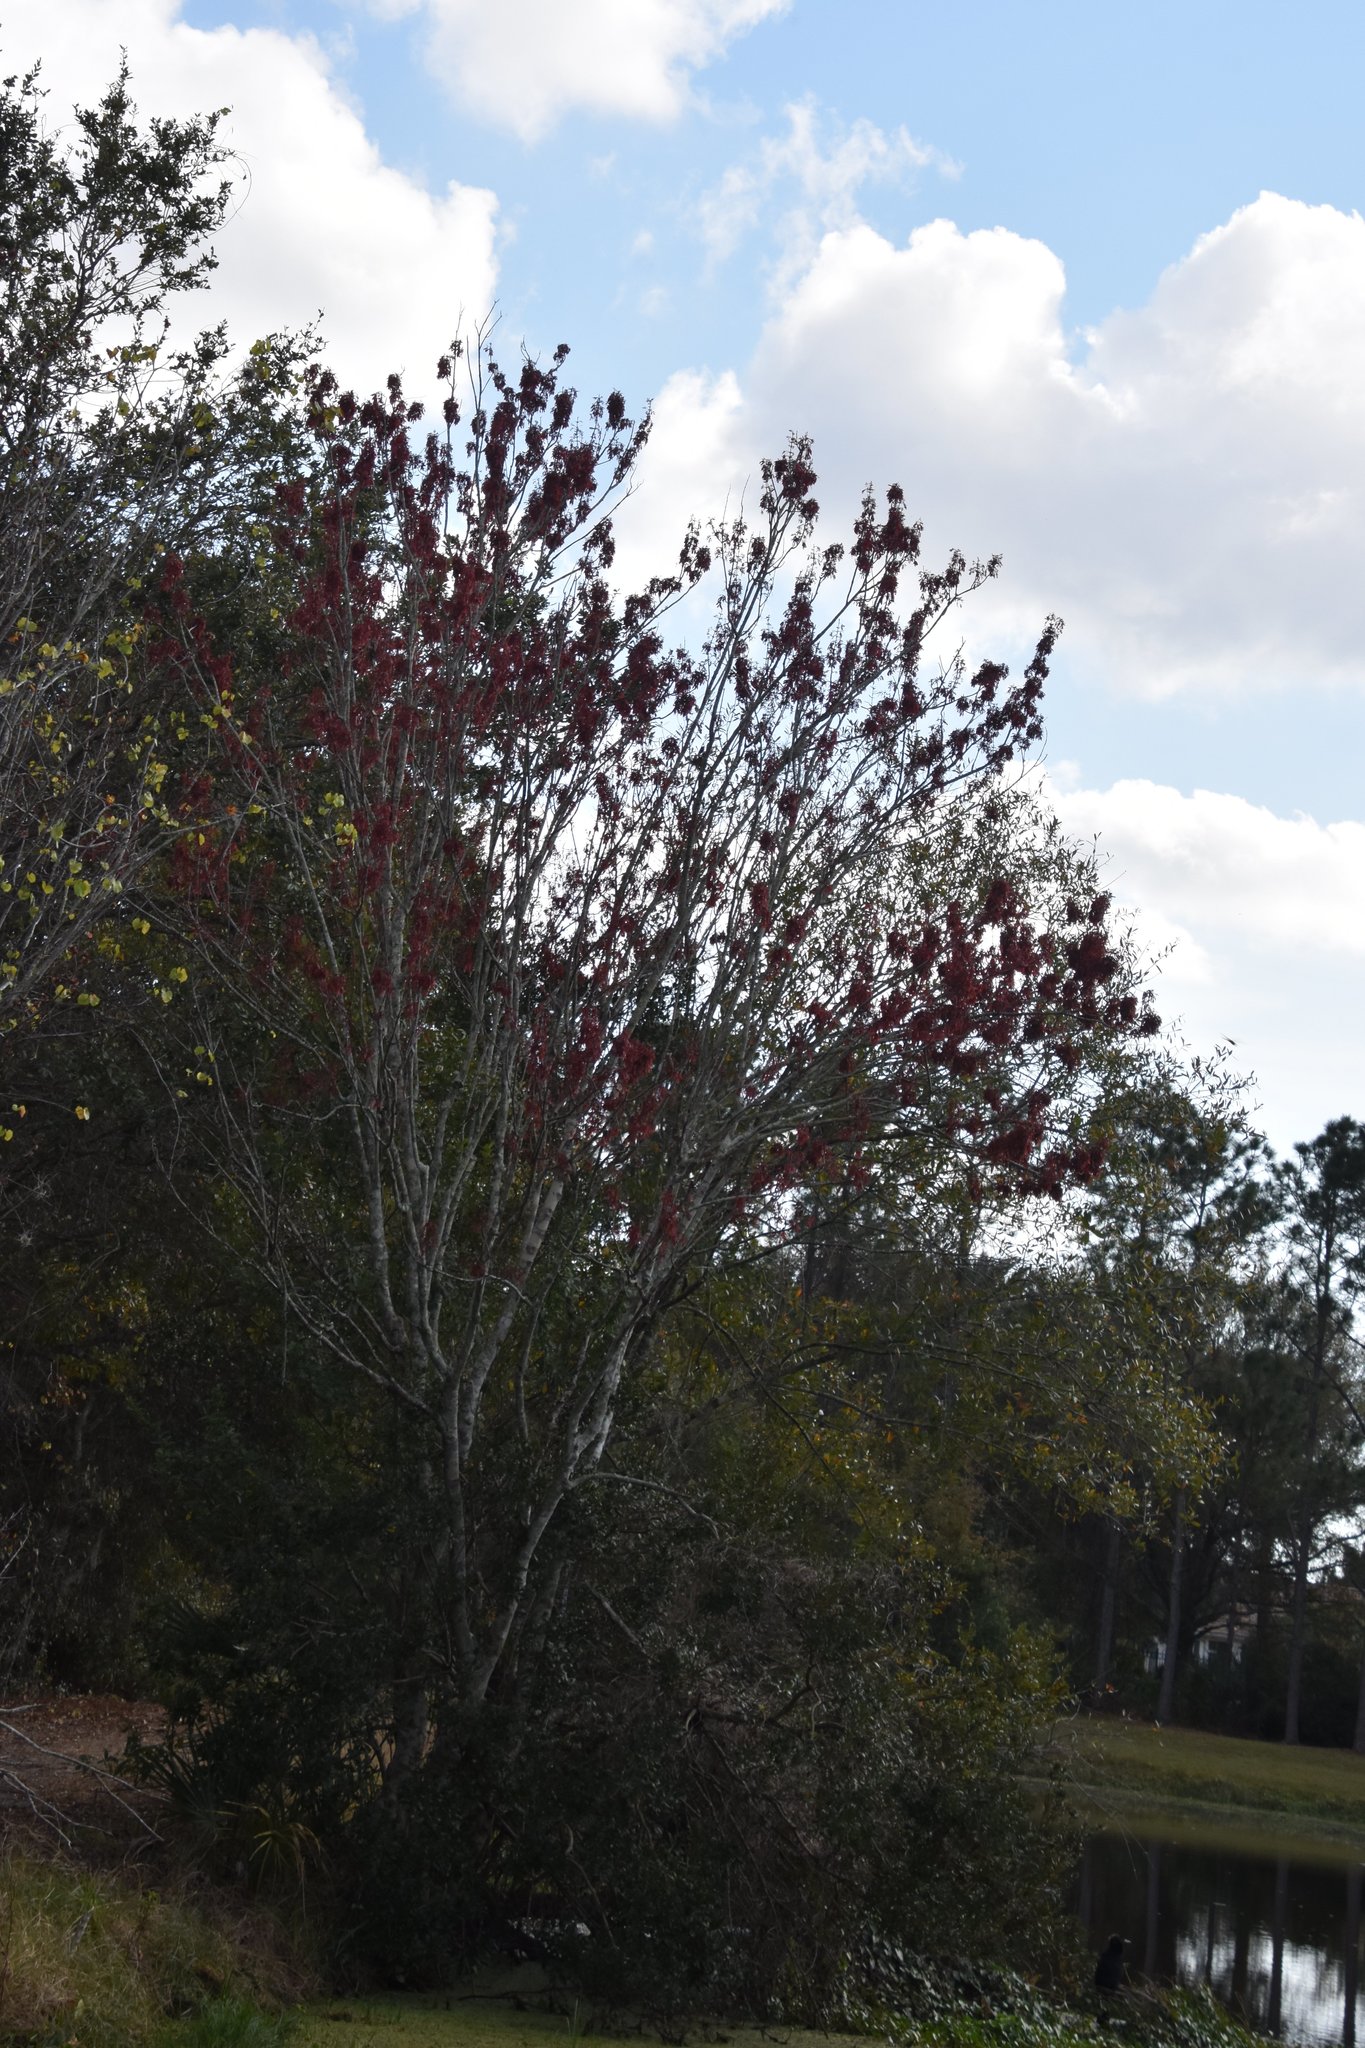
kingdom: Plantae
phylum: Tracheophyta
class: Magnoliopsida
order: Sapindales
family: Sapindaceae
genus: Acer
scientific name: Acer rubrum
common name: Red maple
